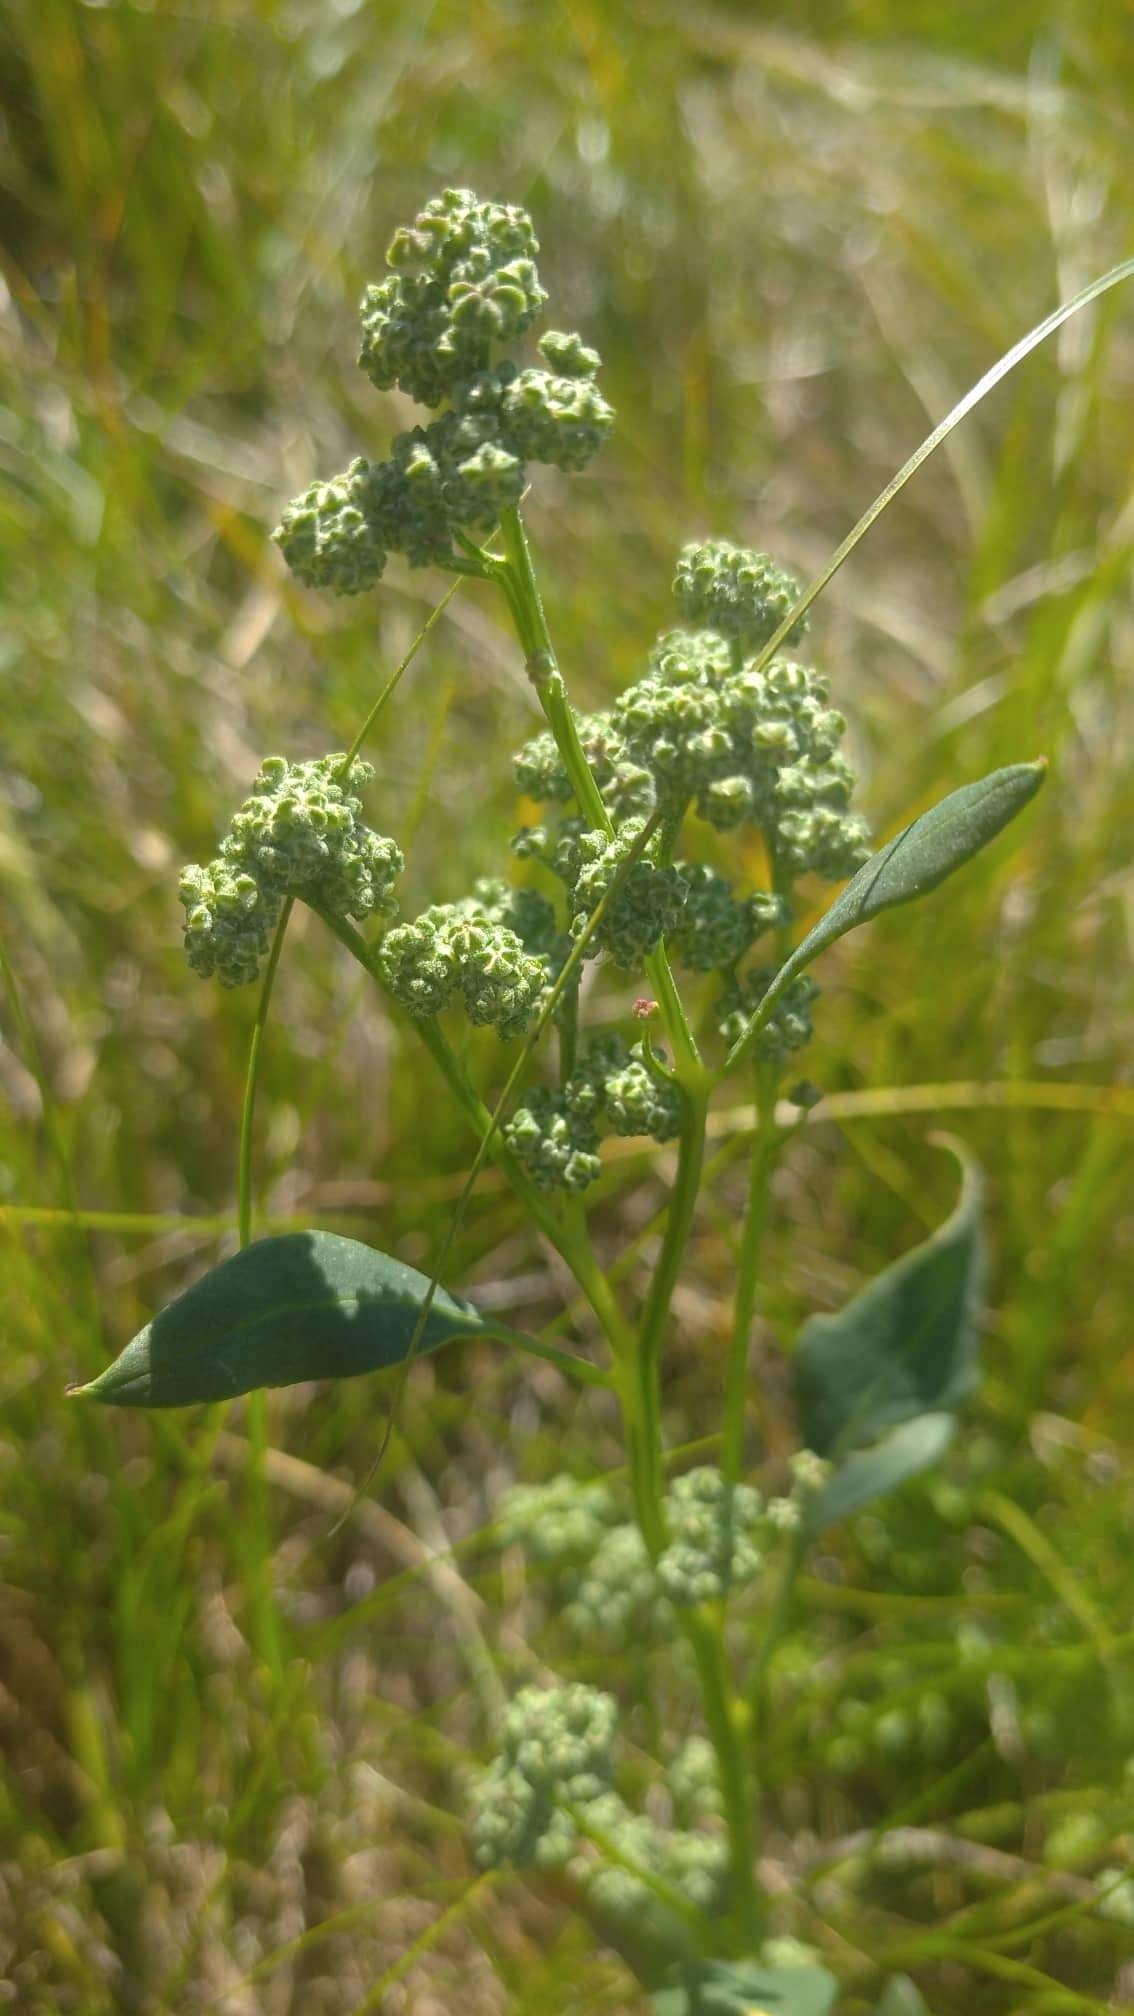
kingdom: Plantae
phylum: Tracheophyta
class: Magnoliopsida
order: Caryophyllales
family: Amaranthaceae
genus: Chenopodium
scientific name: Chenopodium album
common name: Fat-hen
